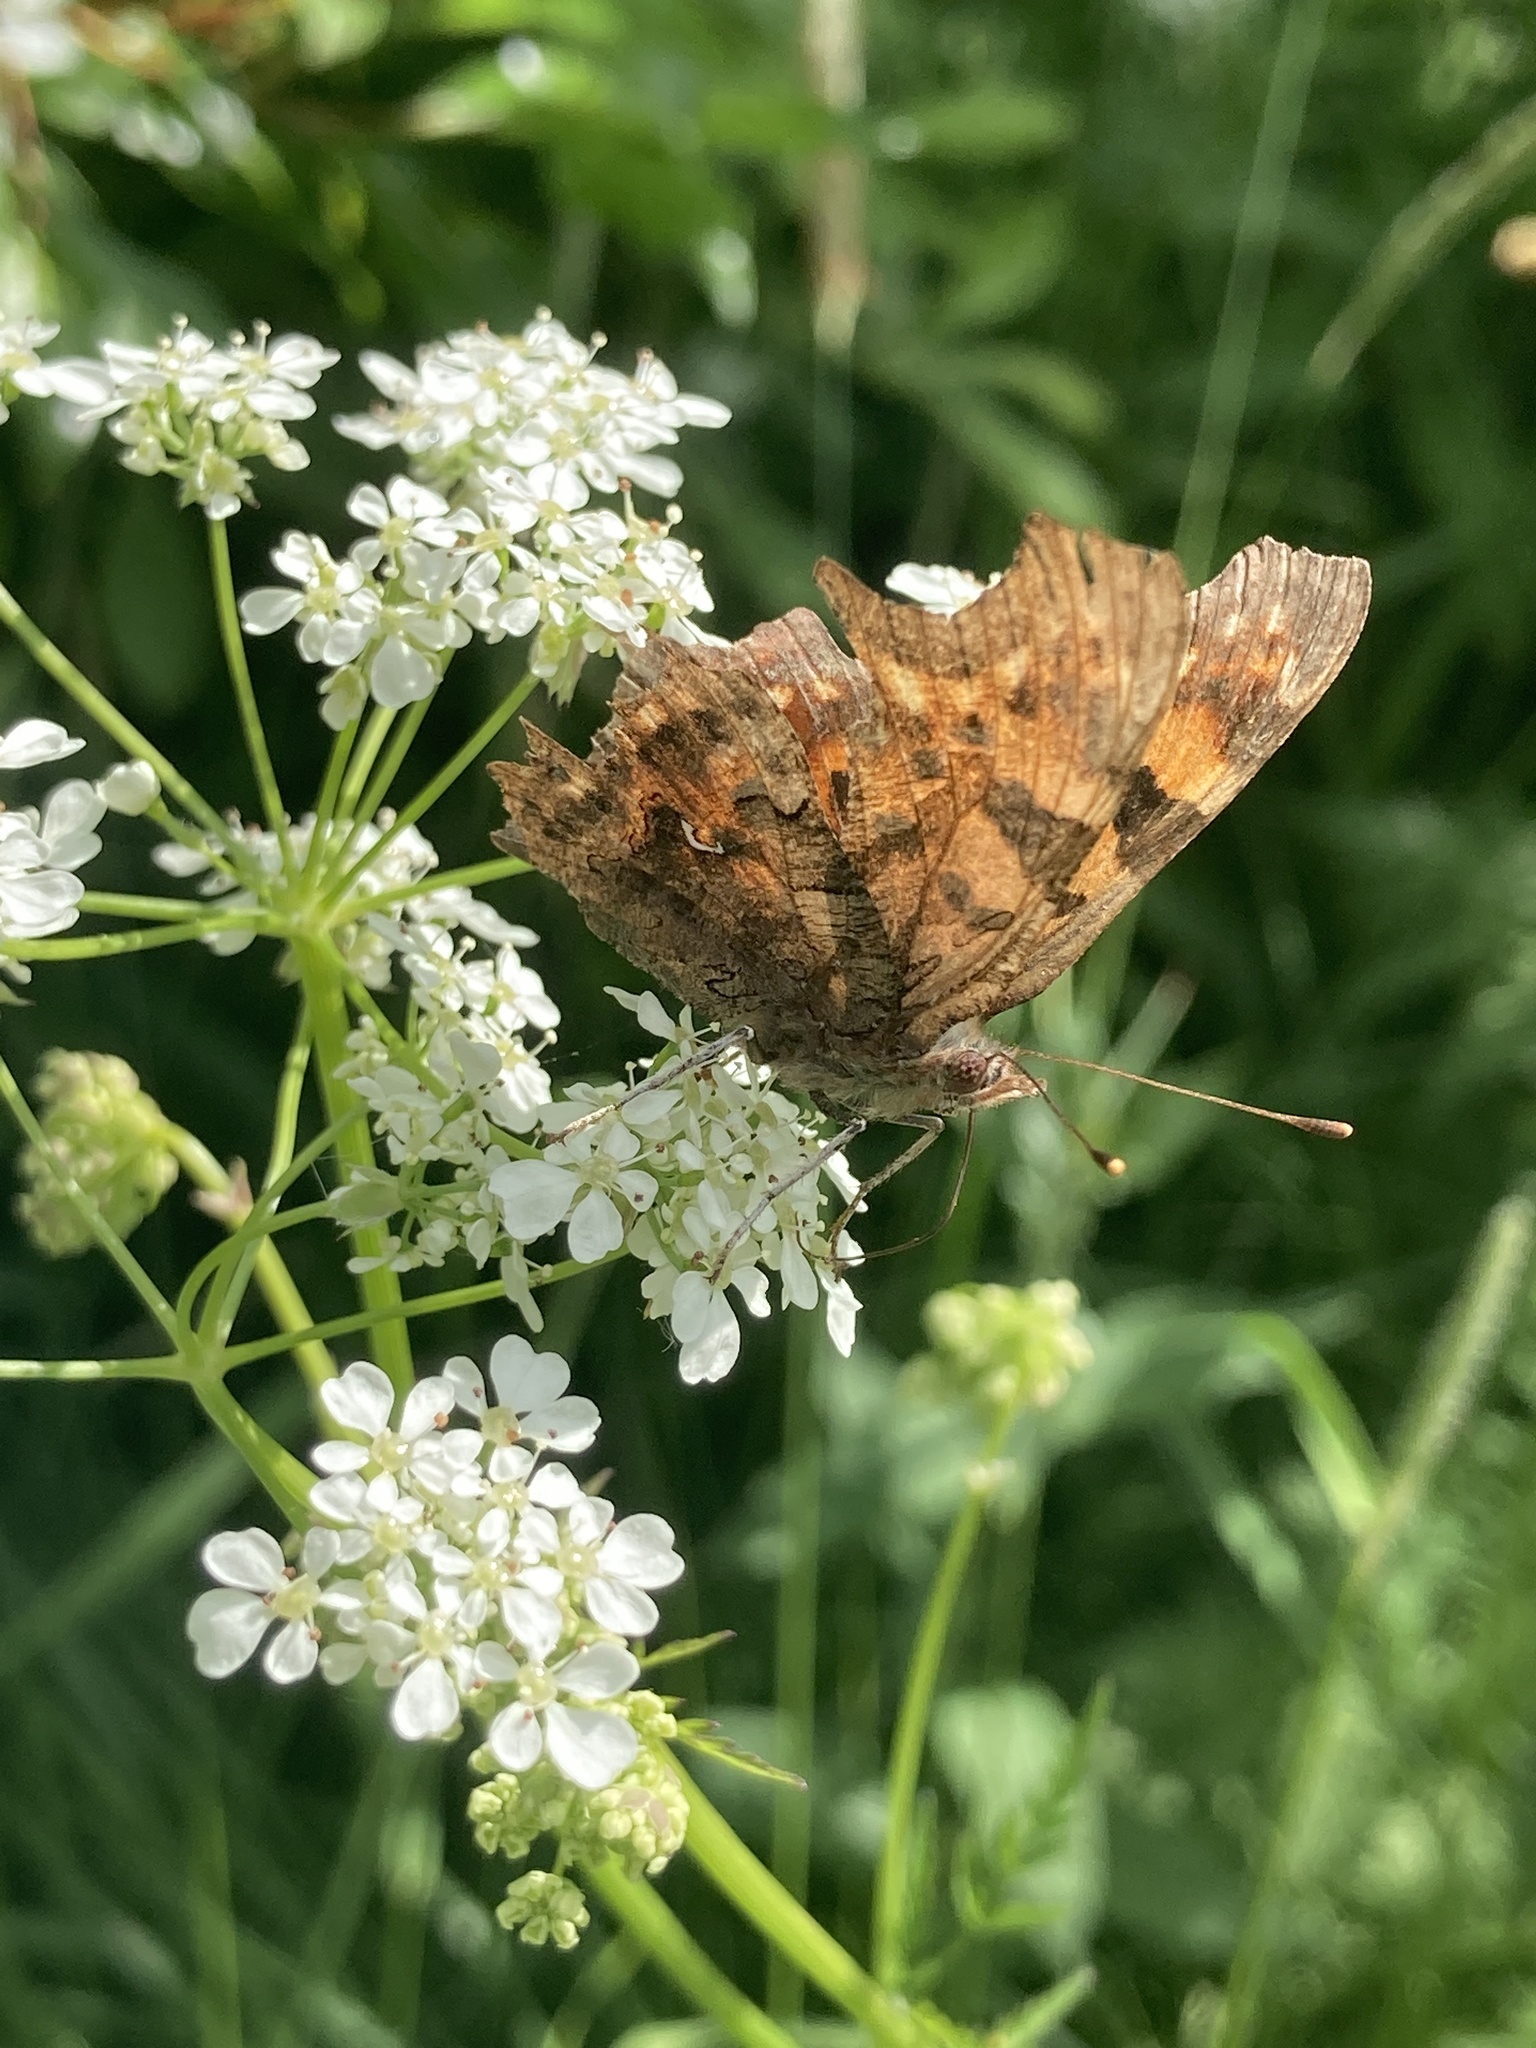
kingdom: Animalia
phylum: Arthropoda
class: Insecta
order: Lepidoptera
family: Nymphalidae
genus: Polygonia
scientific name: Polygonia c-album
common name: Comma
